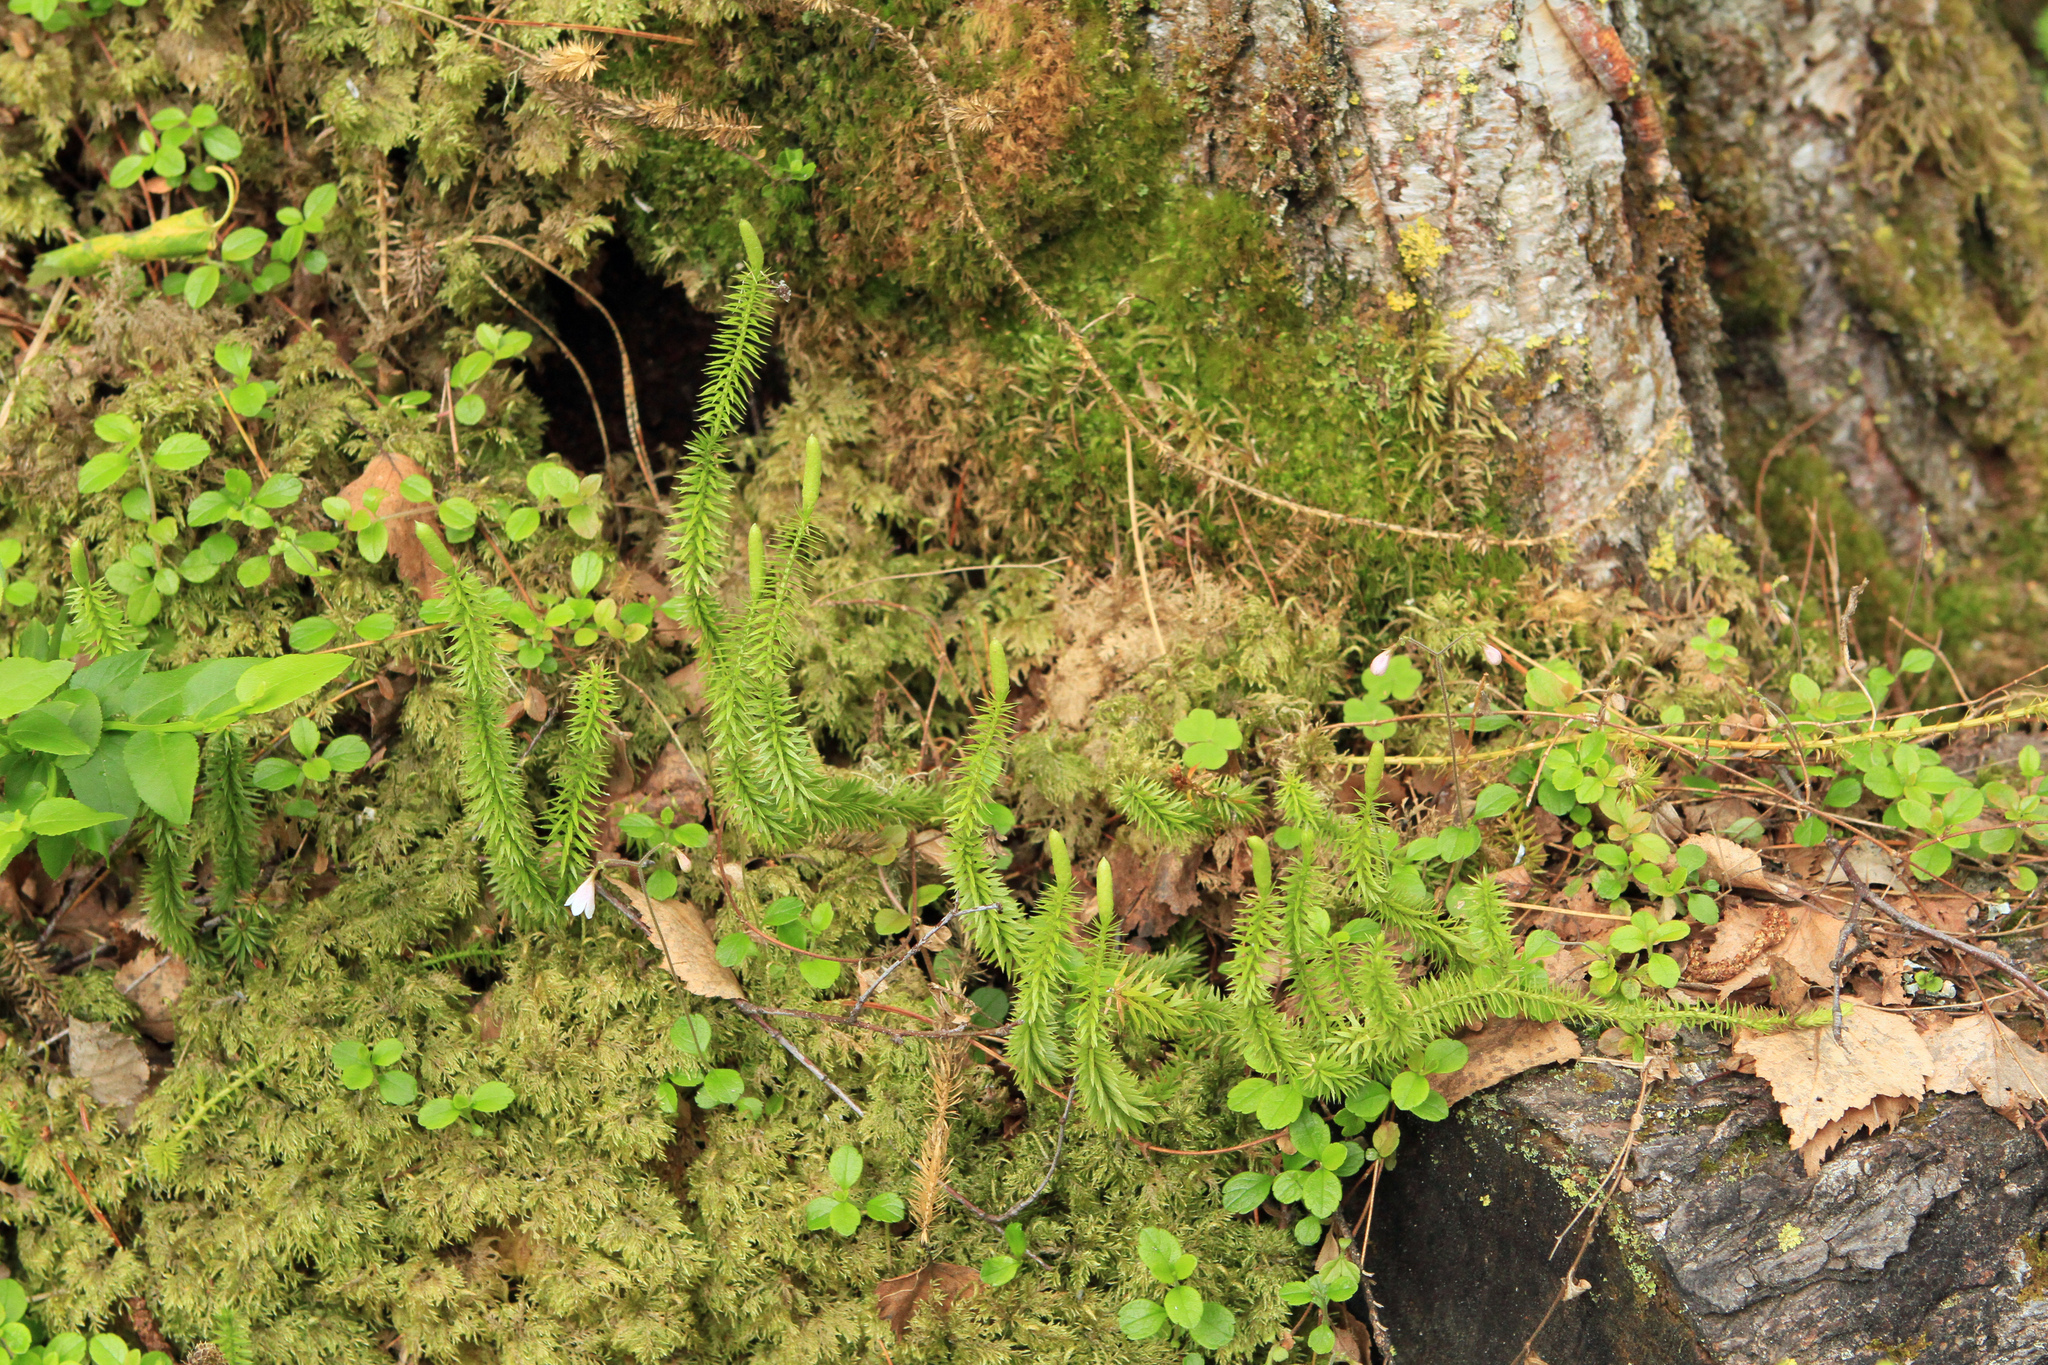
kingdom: Plantae
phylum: Tracheophyta
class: Lycopodiopsida
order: Lycopodiales
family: Lycopodiaceae
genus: Spinulum
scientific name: Spinulum annotinum
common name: Interrupted club-moss
